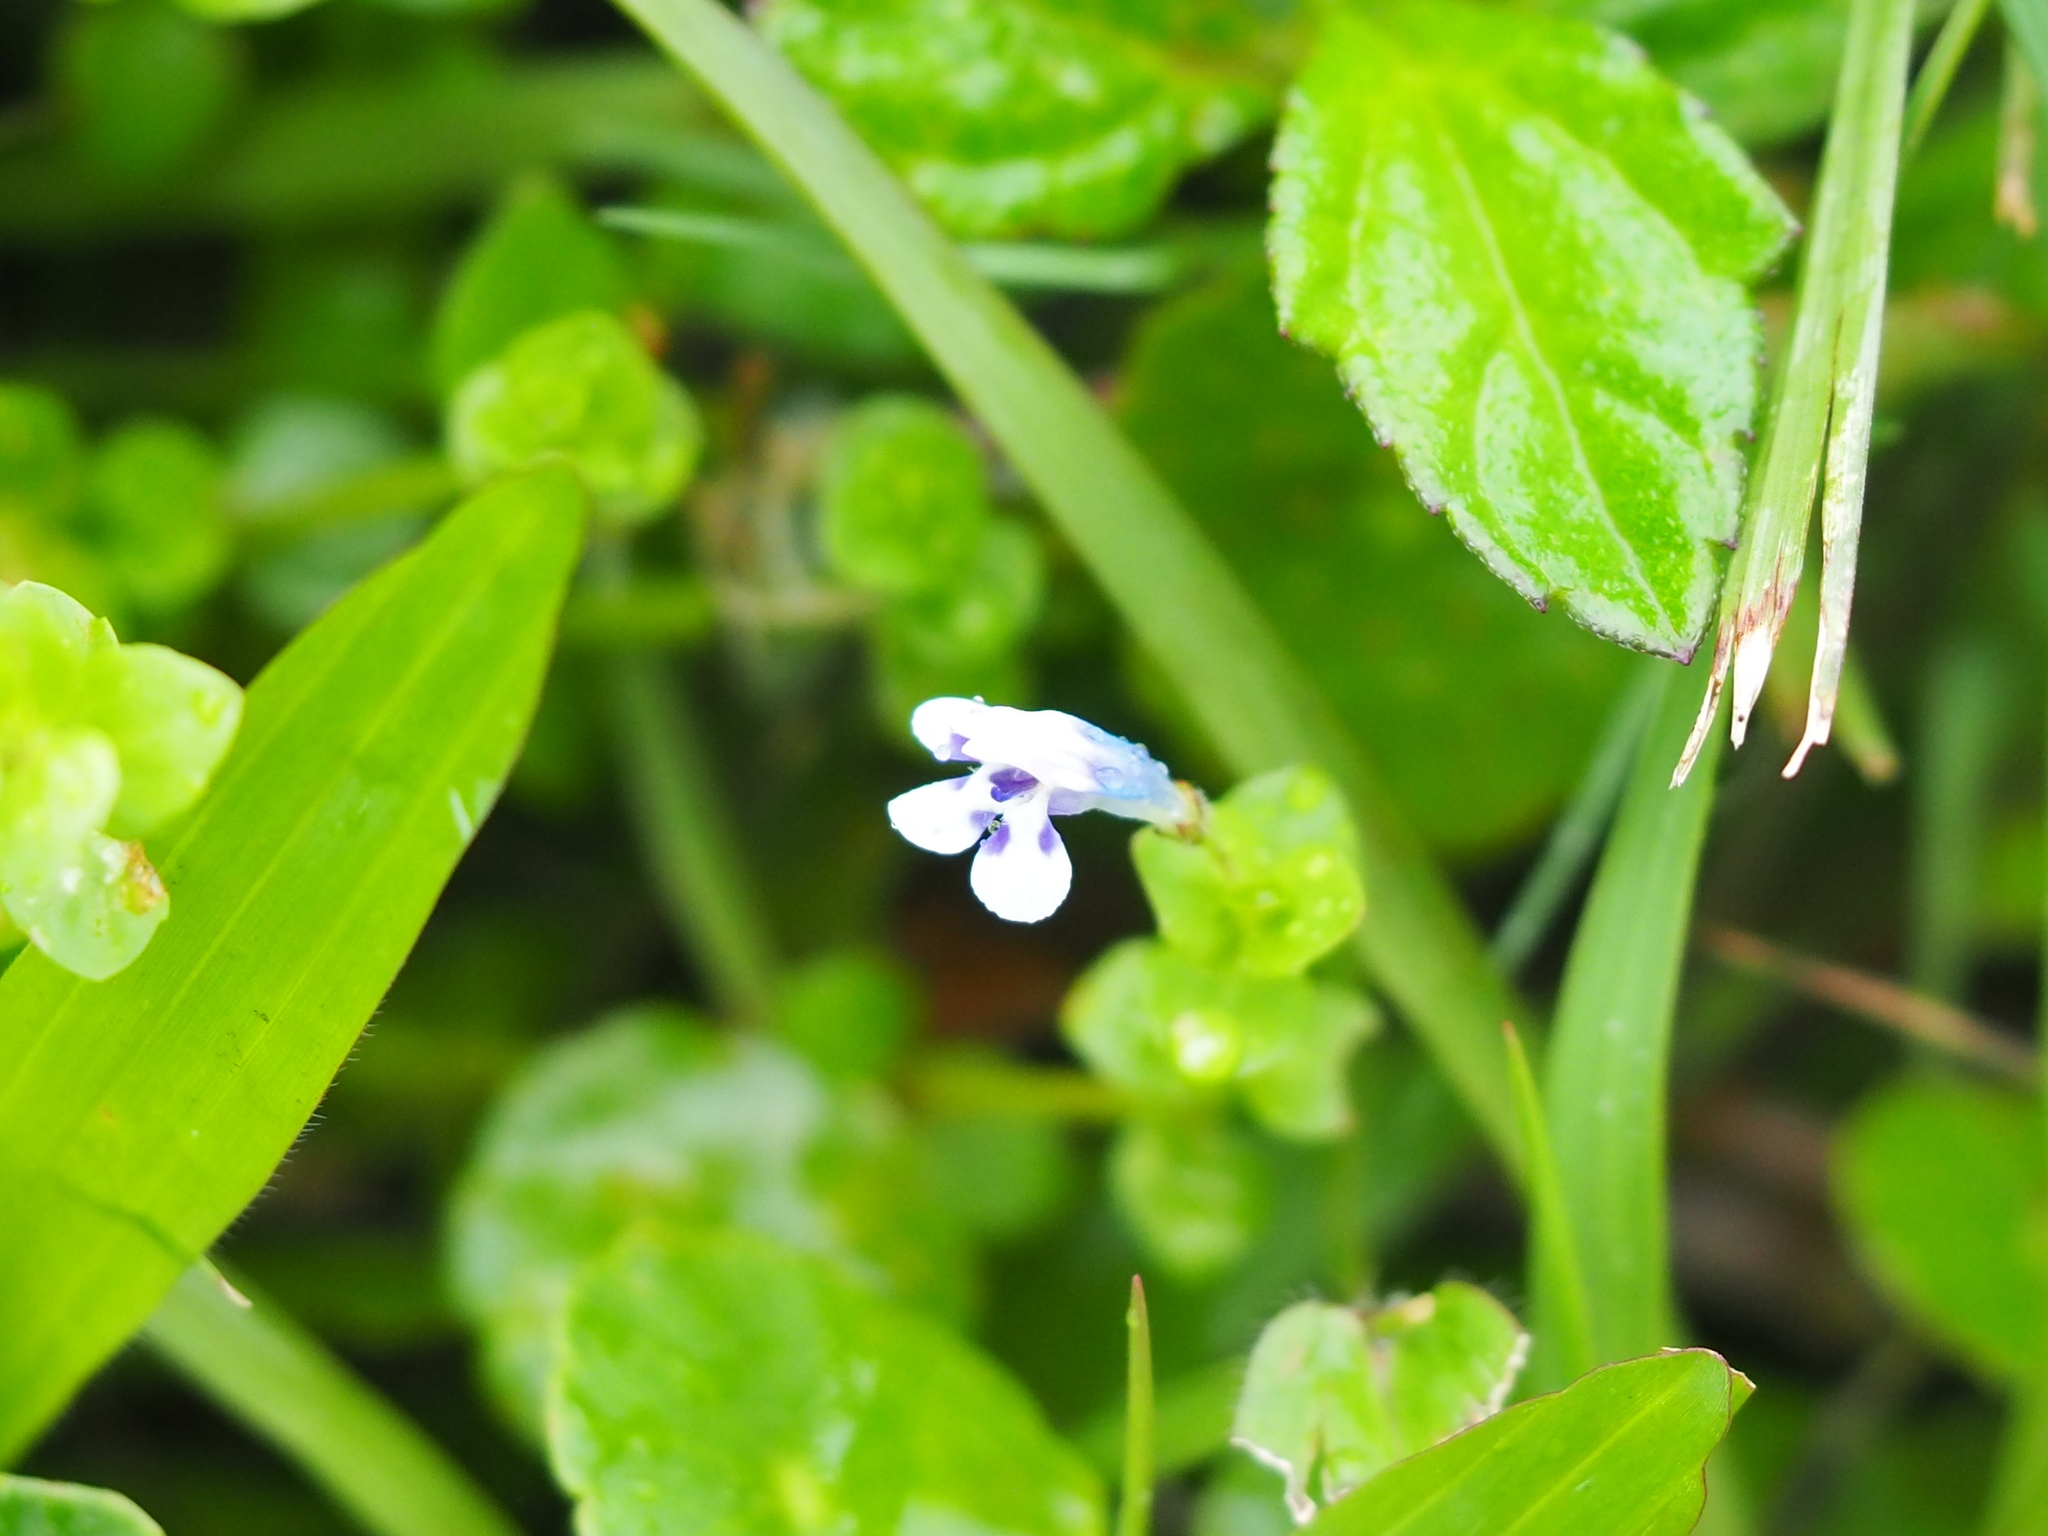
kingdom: Plantae
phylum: Tracheophyta
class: Magnoliopsida
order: Lamiales
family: Linderniaceae
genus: Lindernia
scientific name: Lindernia rotundifolia
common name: Baby’s tears
